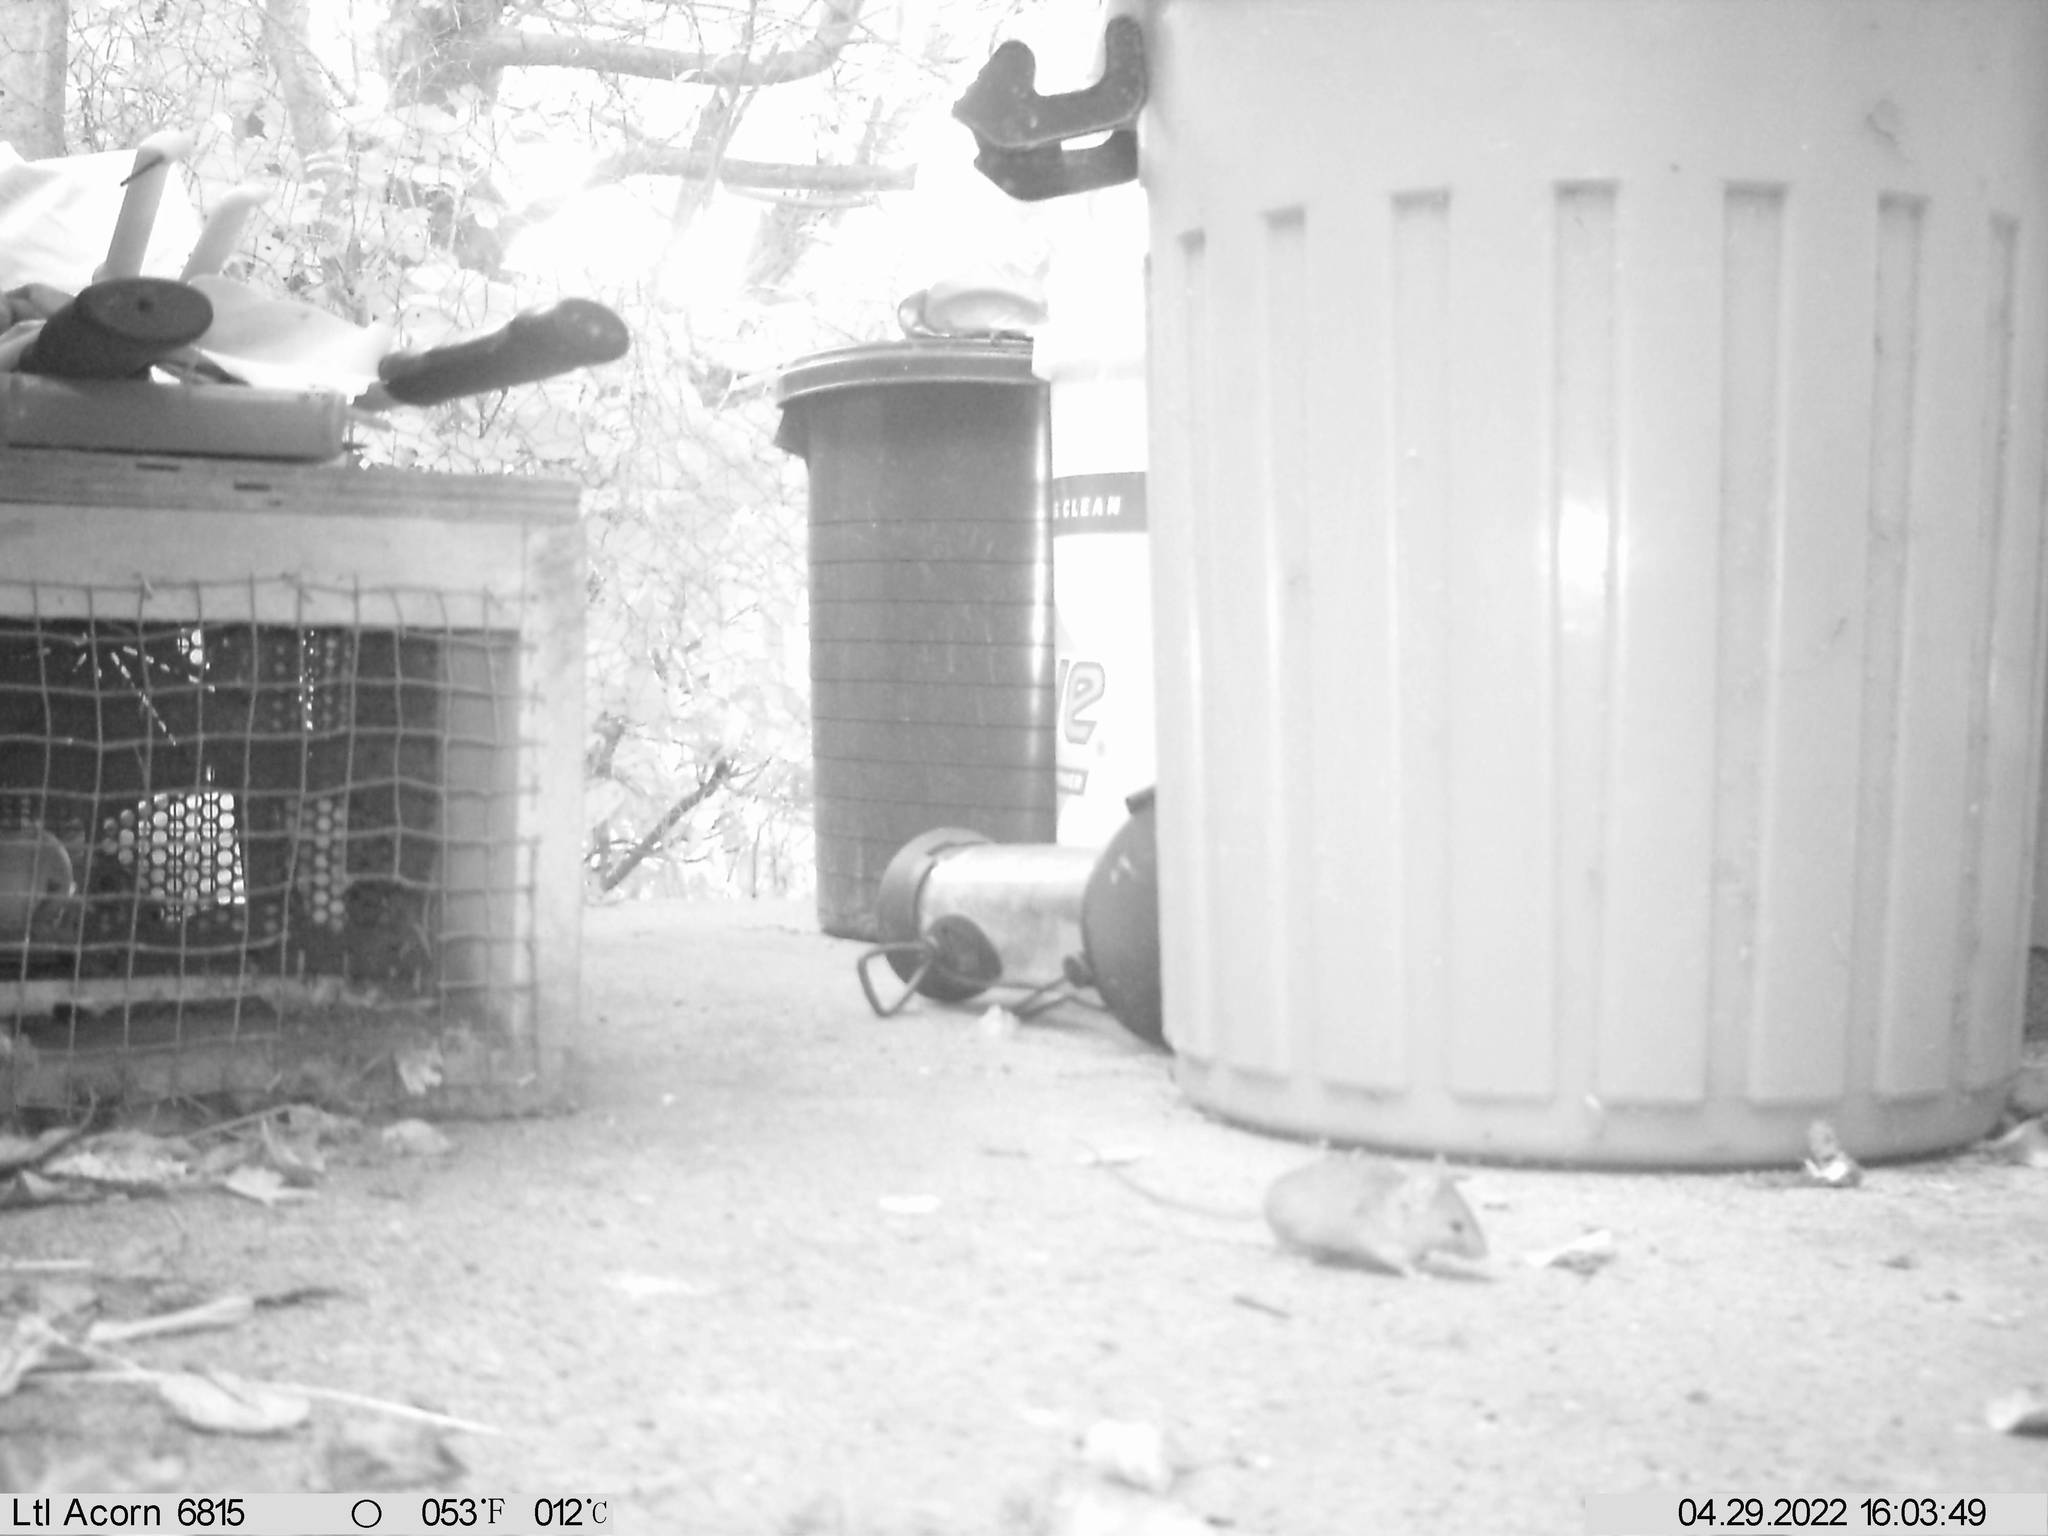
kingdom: Animalia
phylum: Chordata
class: Mammalia
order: Rodentia
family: Muridae
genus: Mus
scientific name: Mus musculus
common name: House mouse
